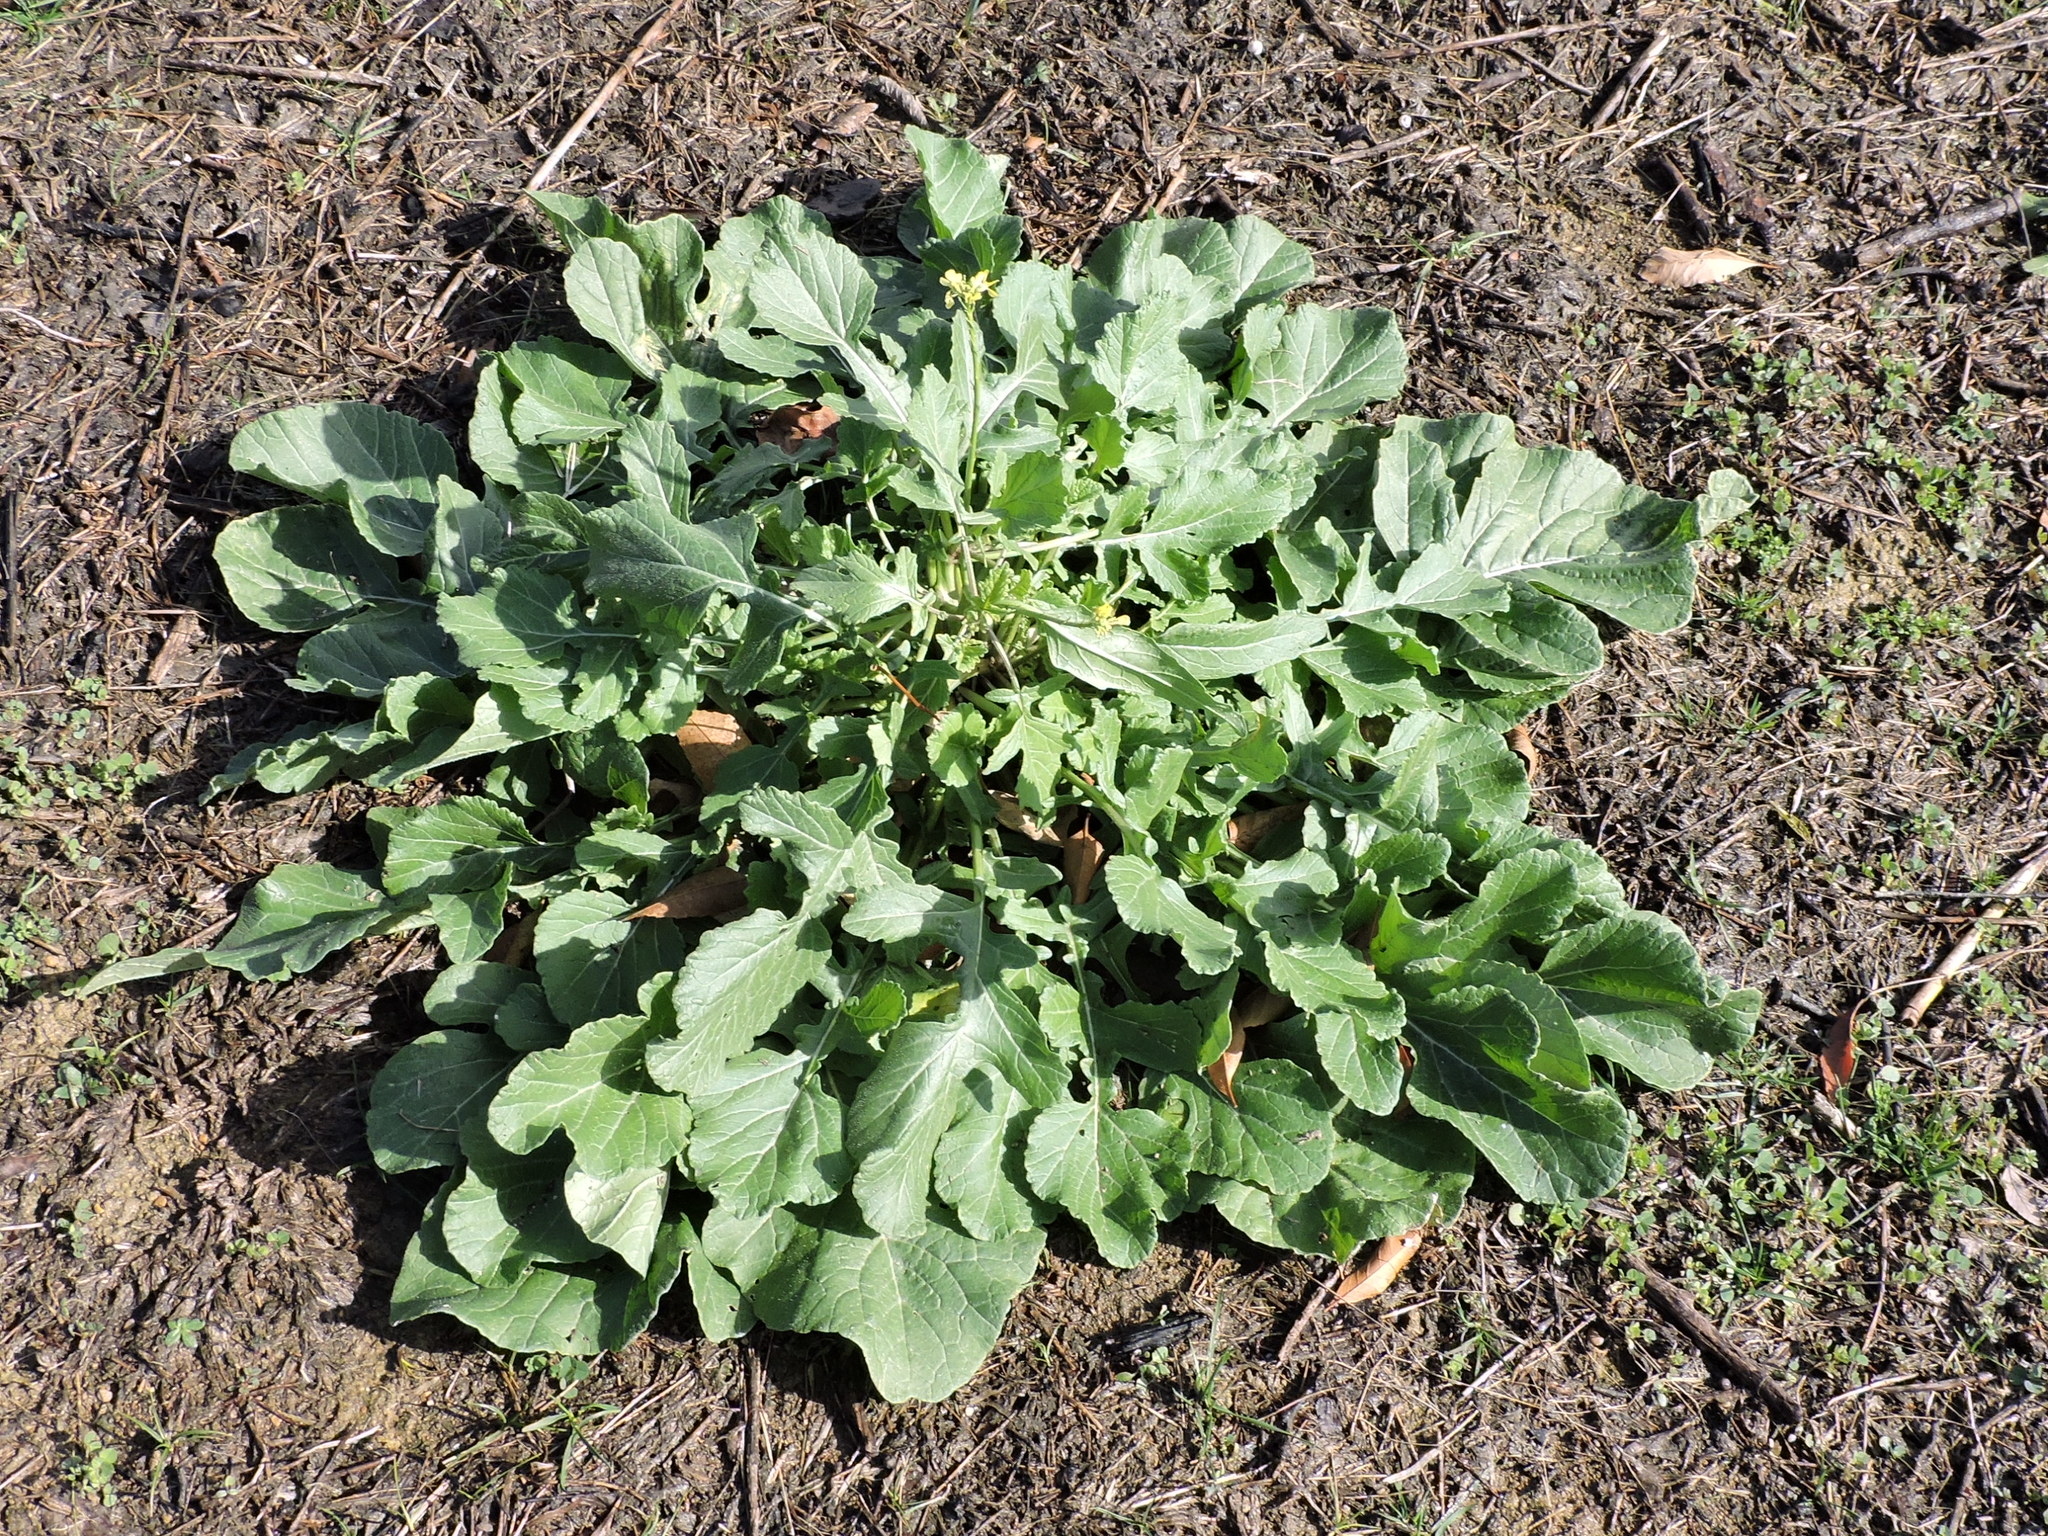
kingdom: Plantae
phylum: Tracheophyta
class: Magnoliopsida
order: Brassicales
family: Brassicaceae
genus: Rapistrum
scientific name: Rapistrum rugosum
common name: Annual bastardcabbage
